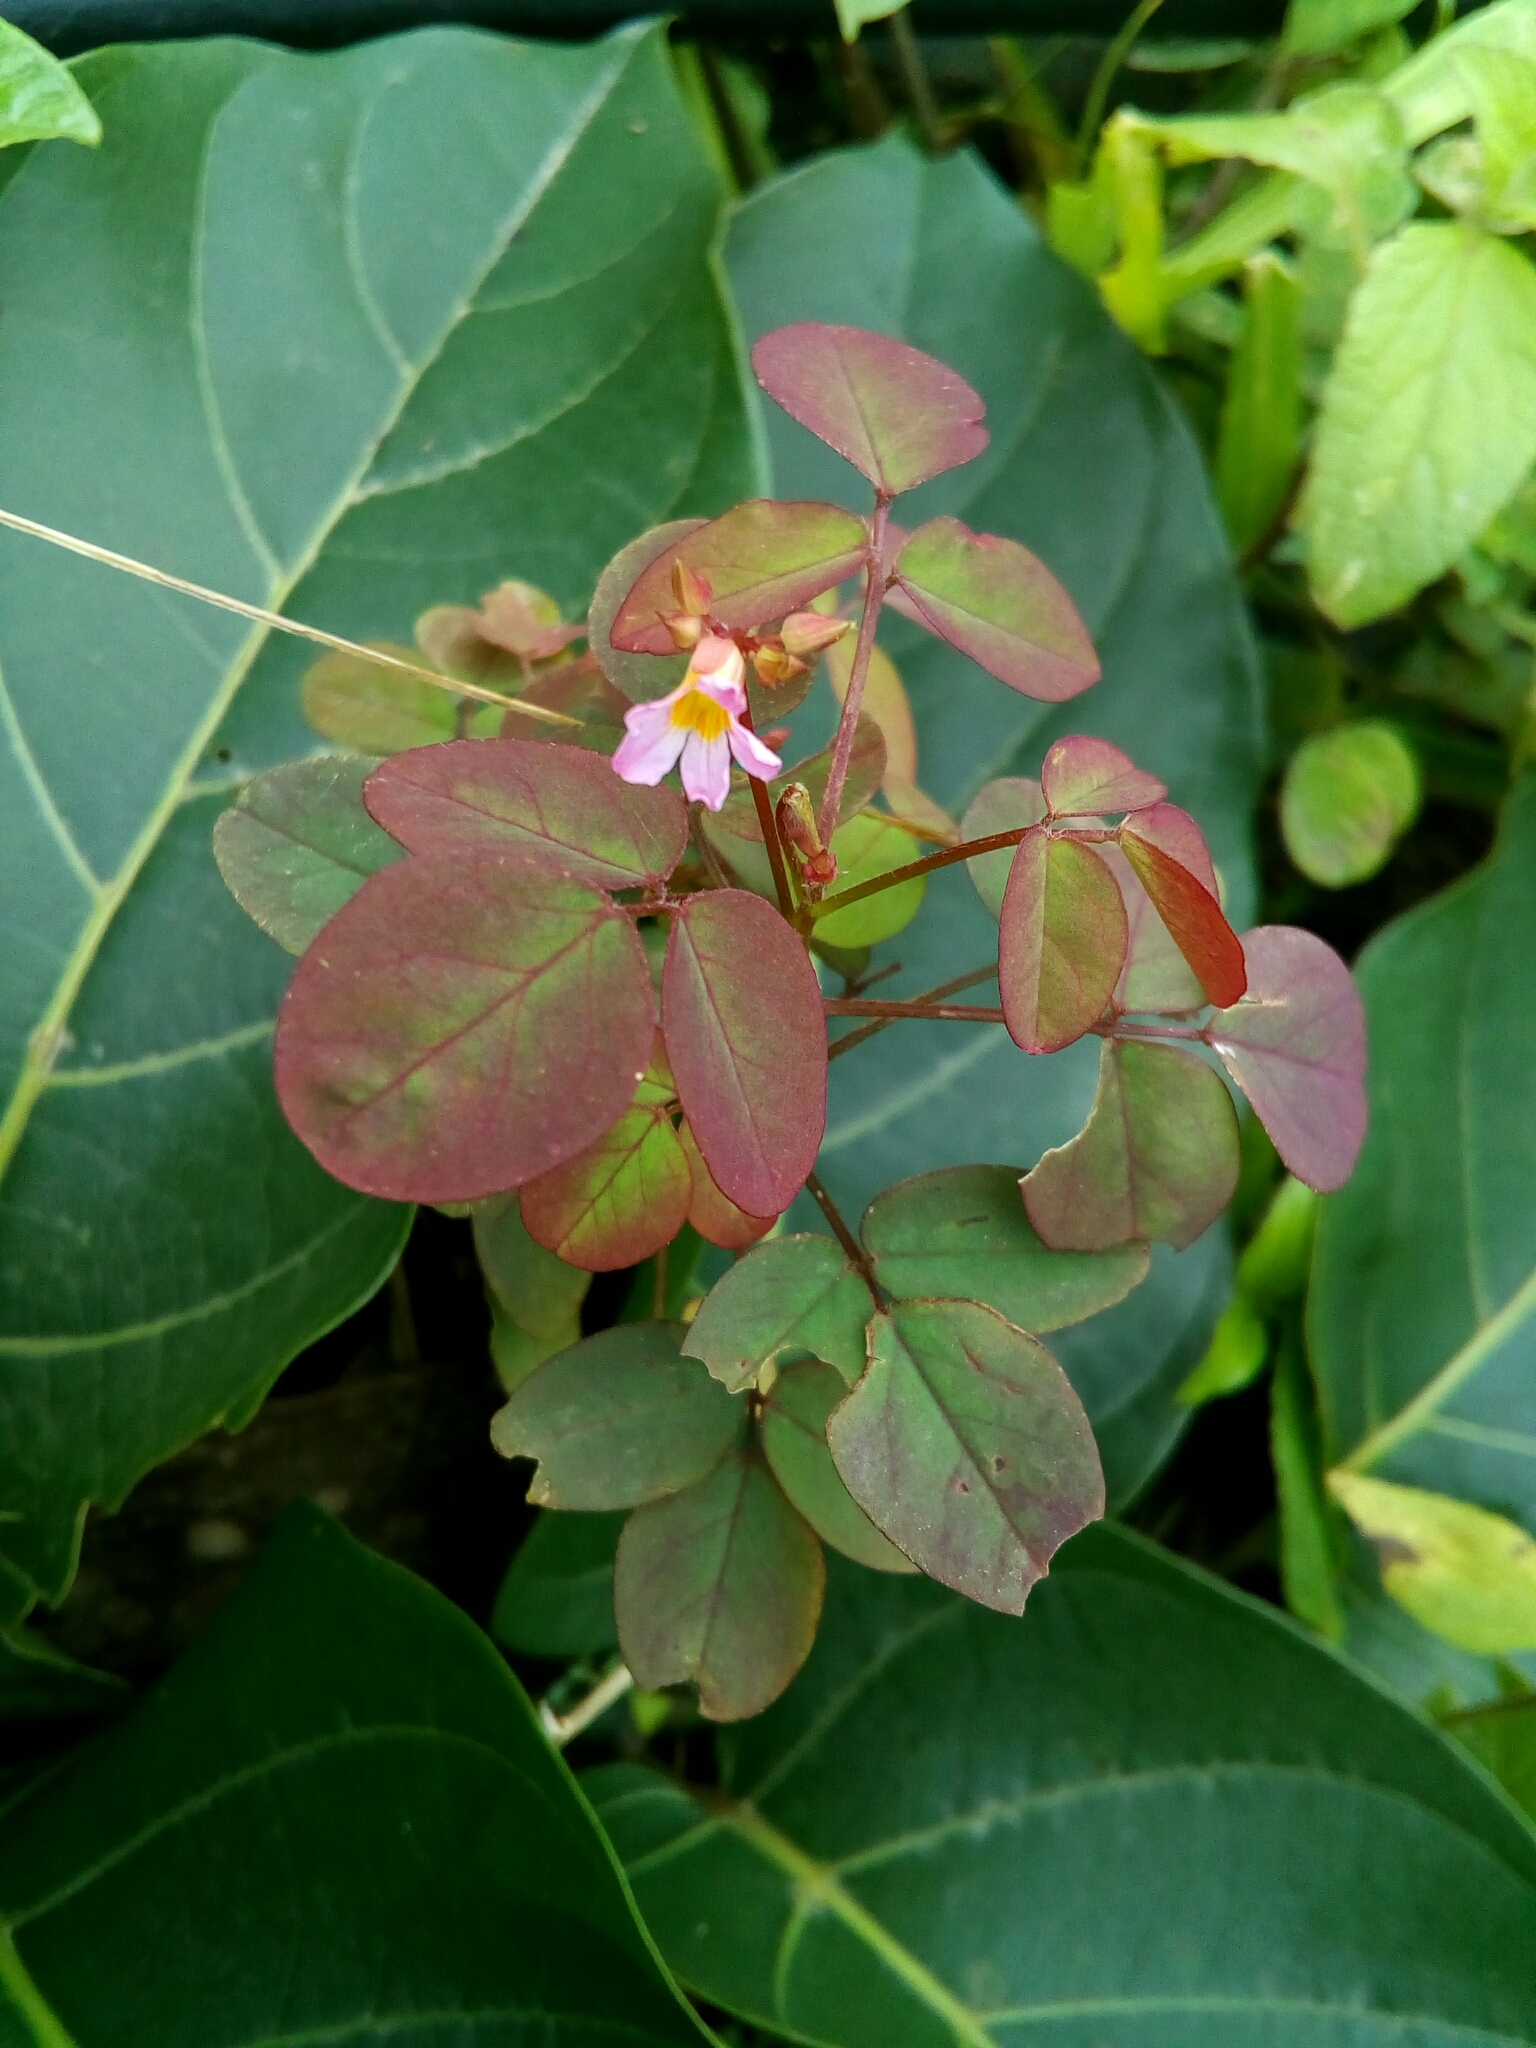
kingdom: Plantae
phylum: Tracheophyta
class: Magnoliopsida
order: Oxalidales
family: Oxalidaceae
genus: Oxalis
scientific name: Oxalis barrelieri
